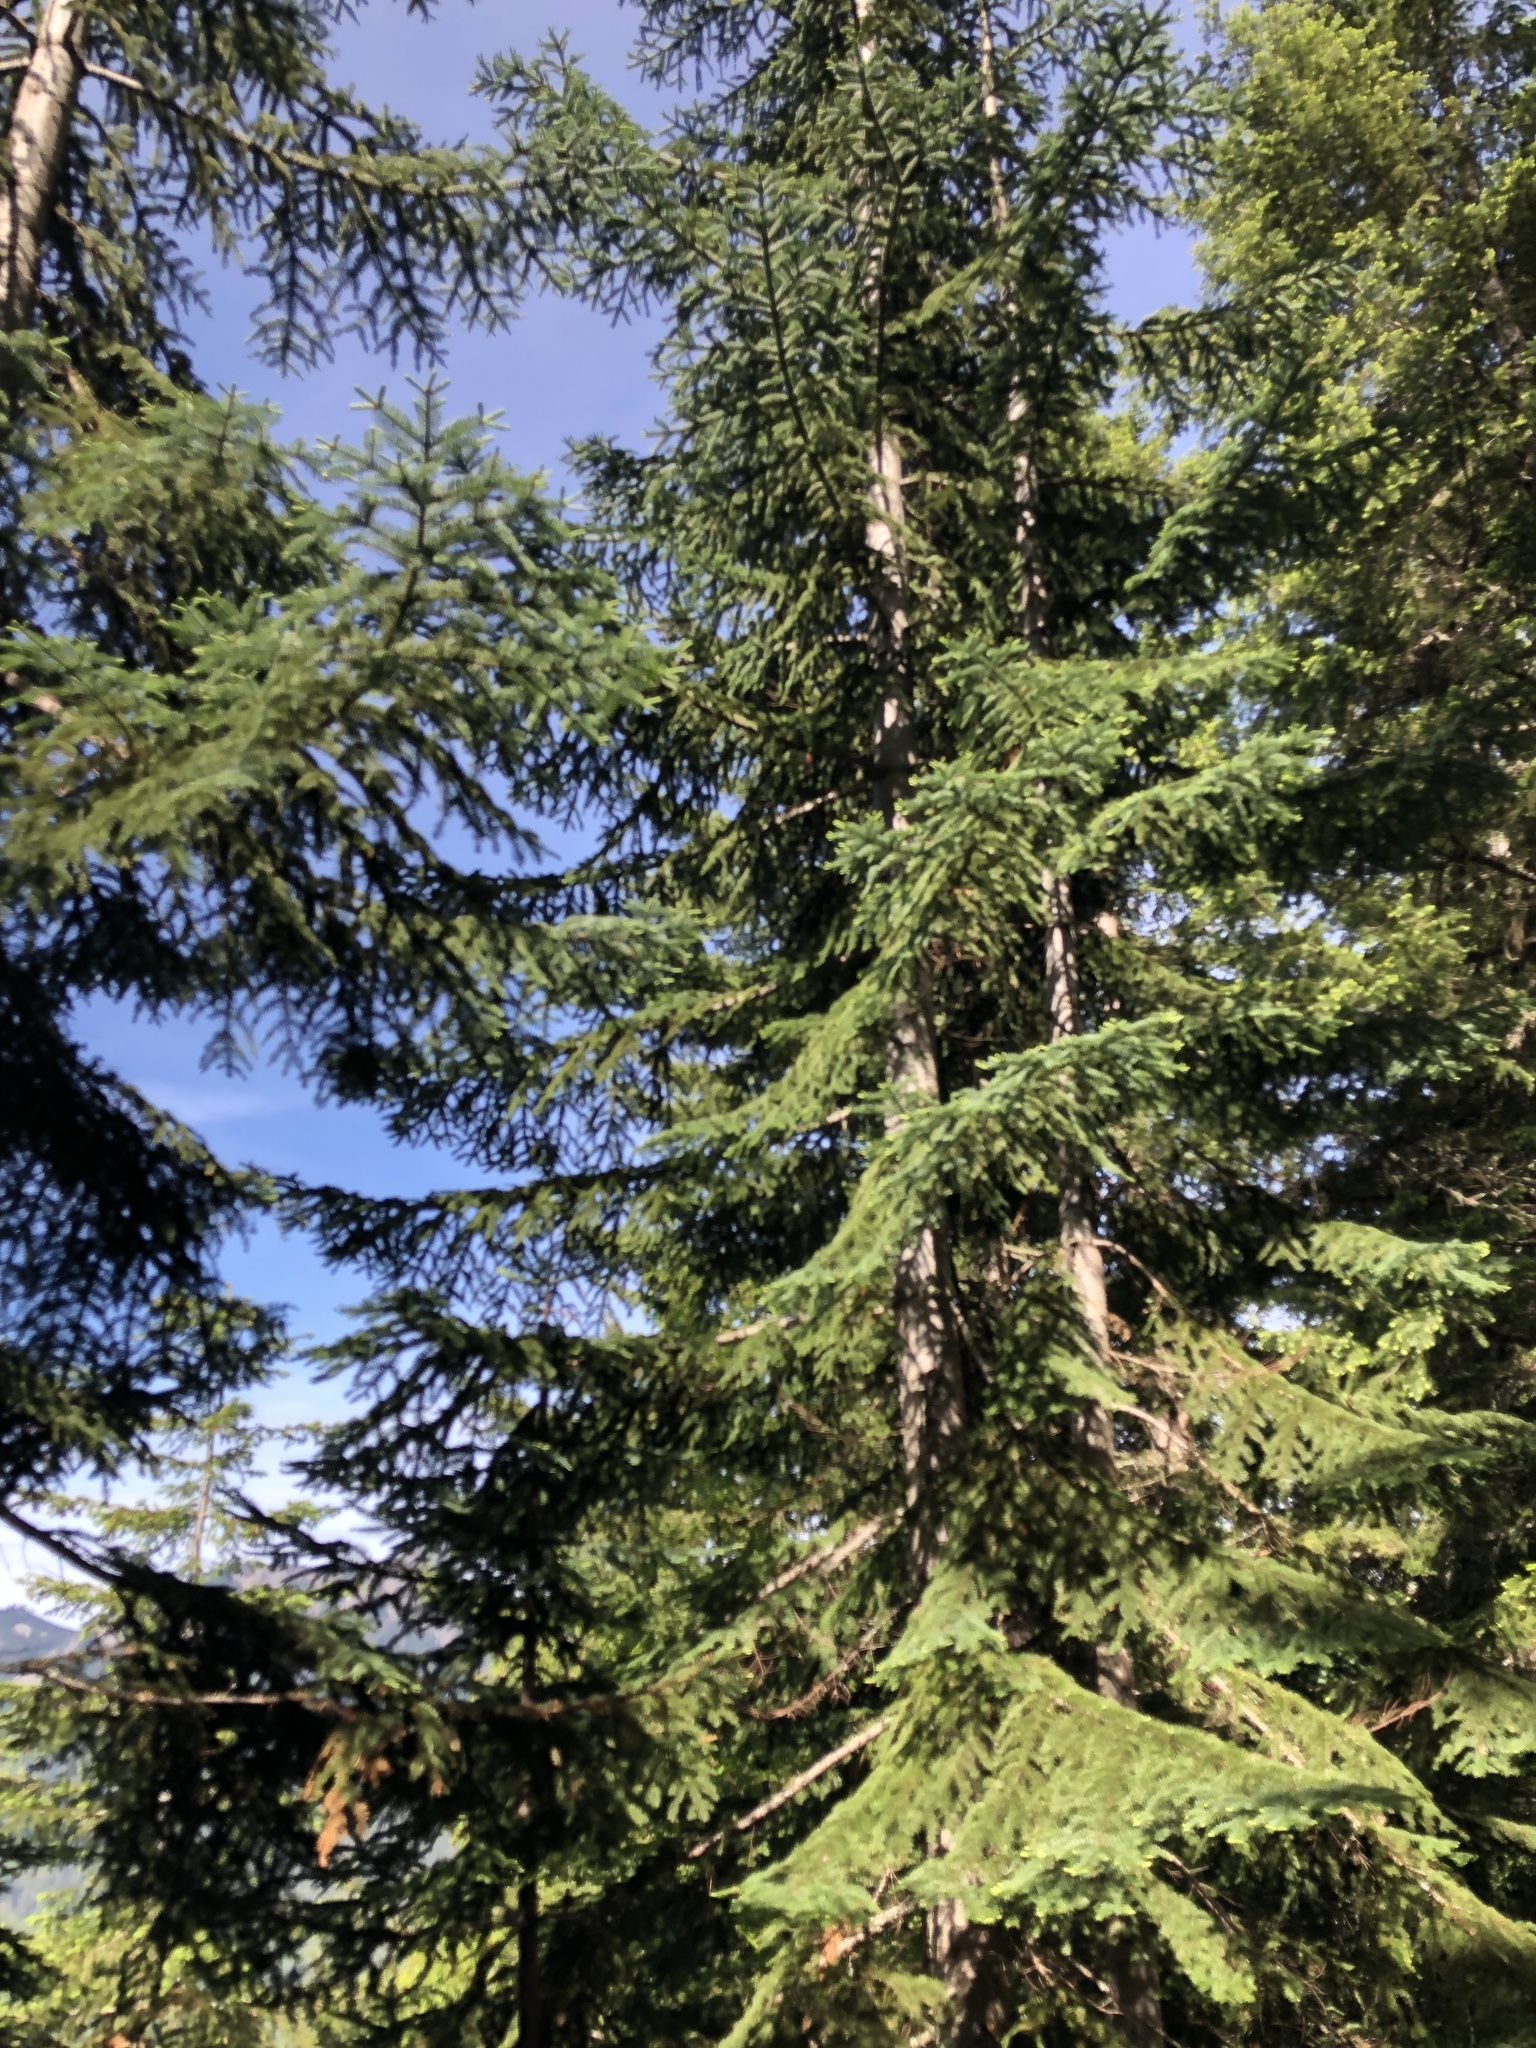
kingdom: Plantae
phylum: Tracheophyta
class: Pinopsida
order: Pinales
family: Pinaceae
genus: Abies
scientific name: Abies procera
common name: Noble fir
